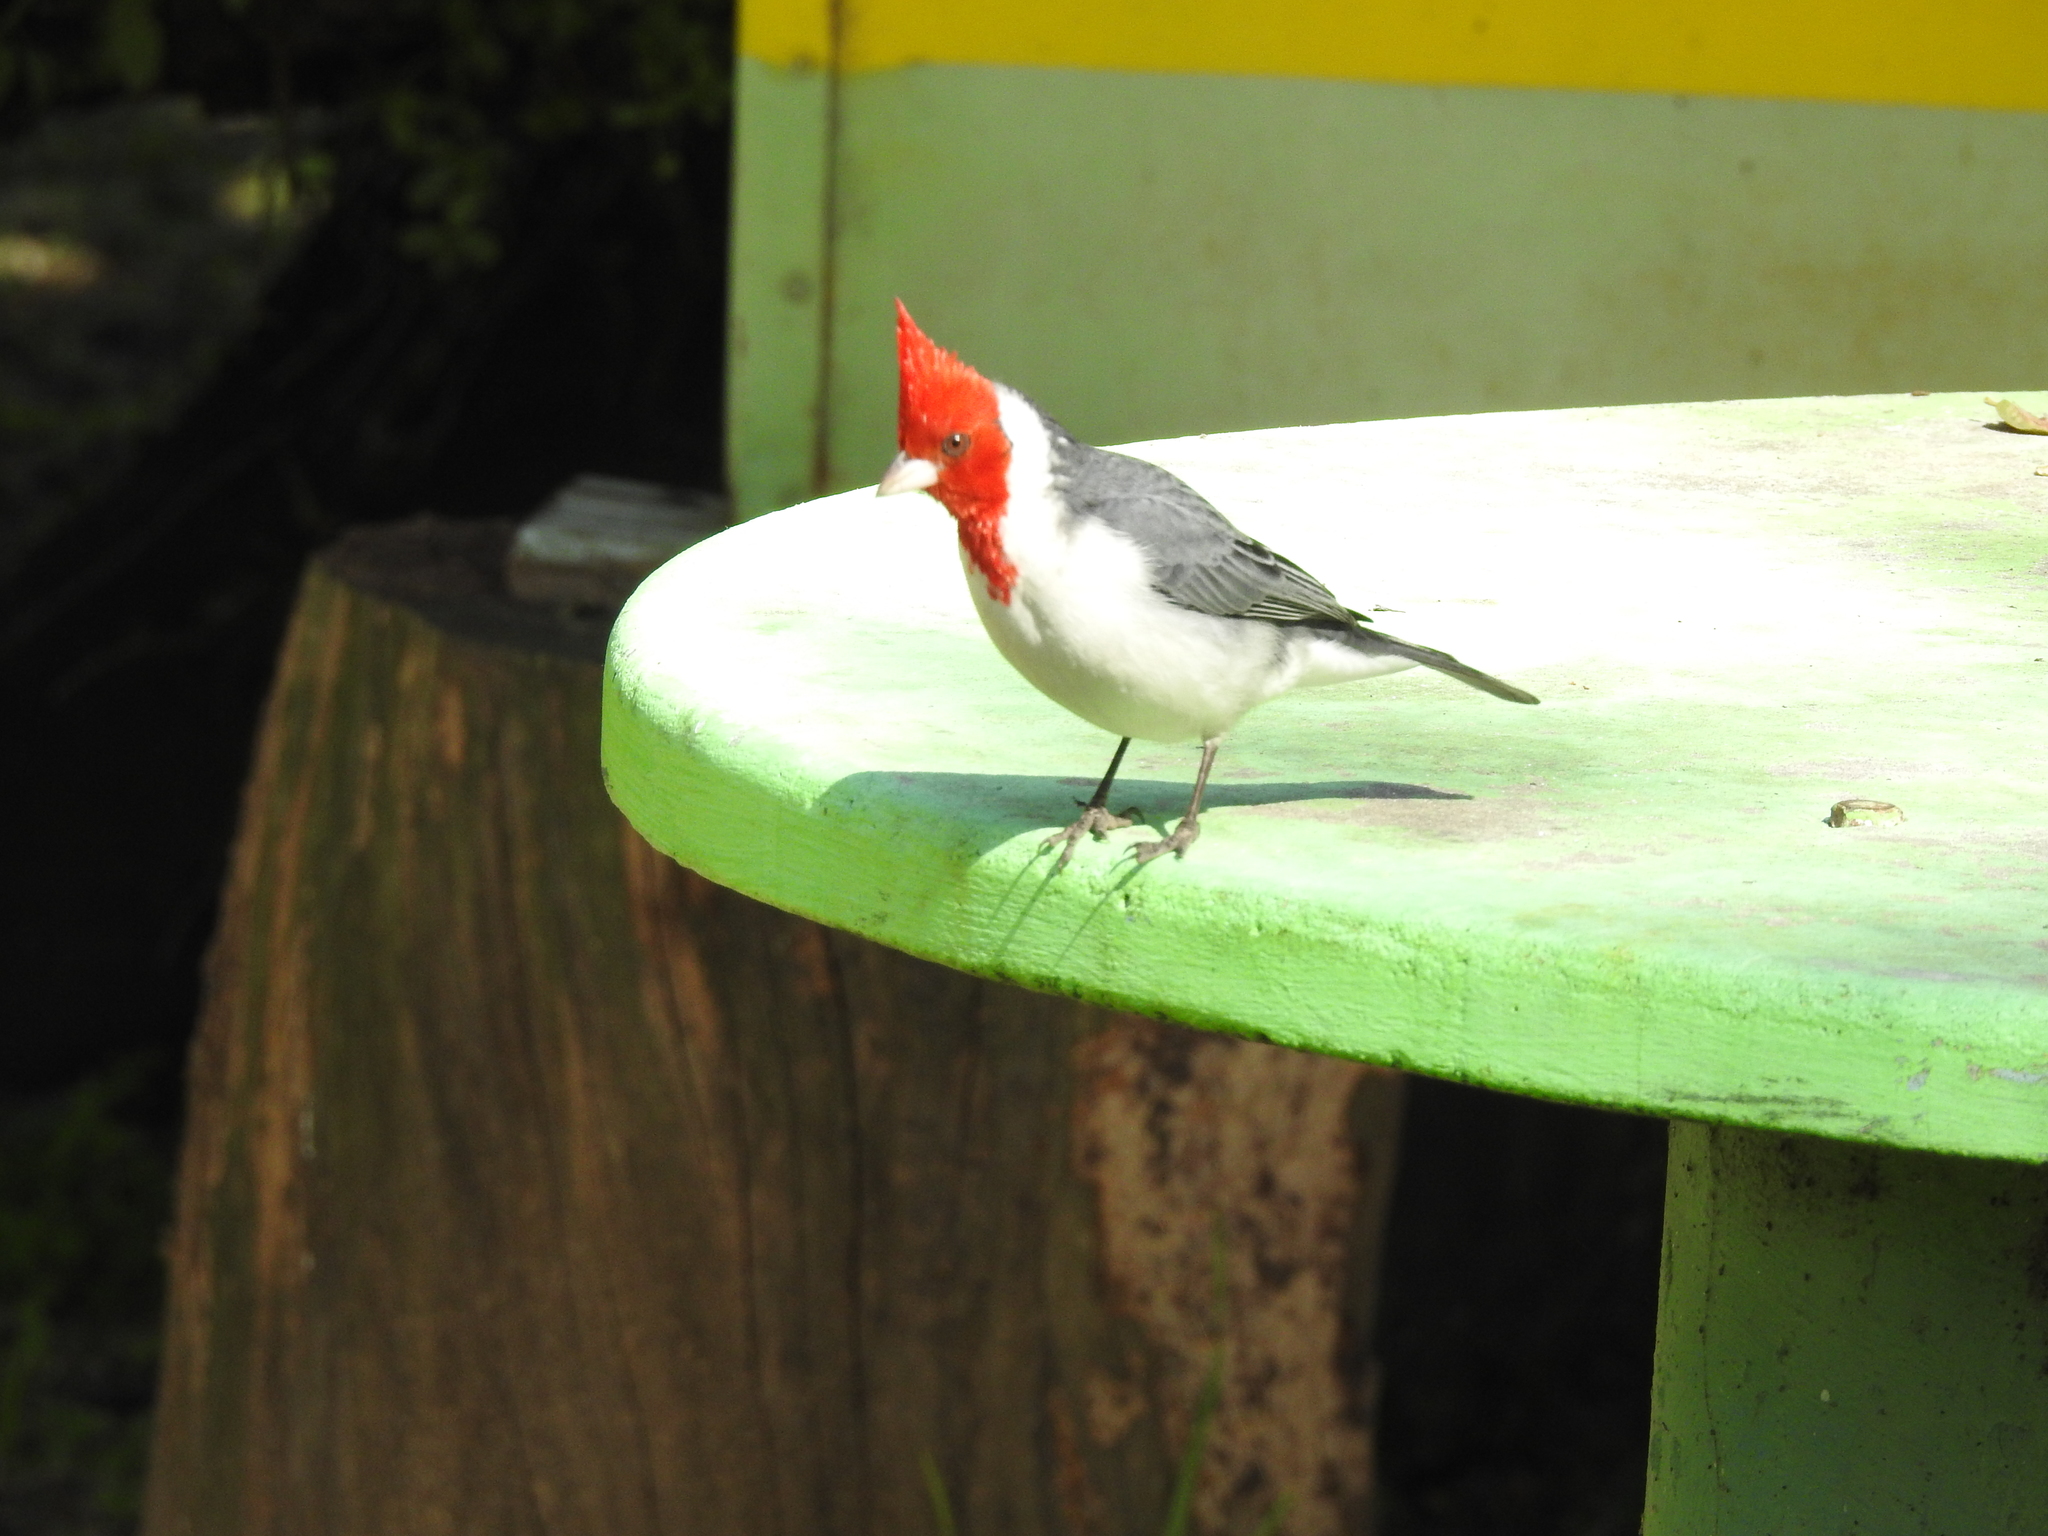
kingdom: Animalia
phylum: Chordata
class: Aves
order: Passeriformes
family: Thraupidae
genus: Paroaria
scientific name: Paroaria coronata
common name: Red-crested cardinal
